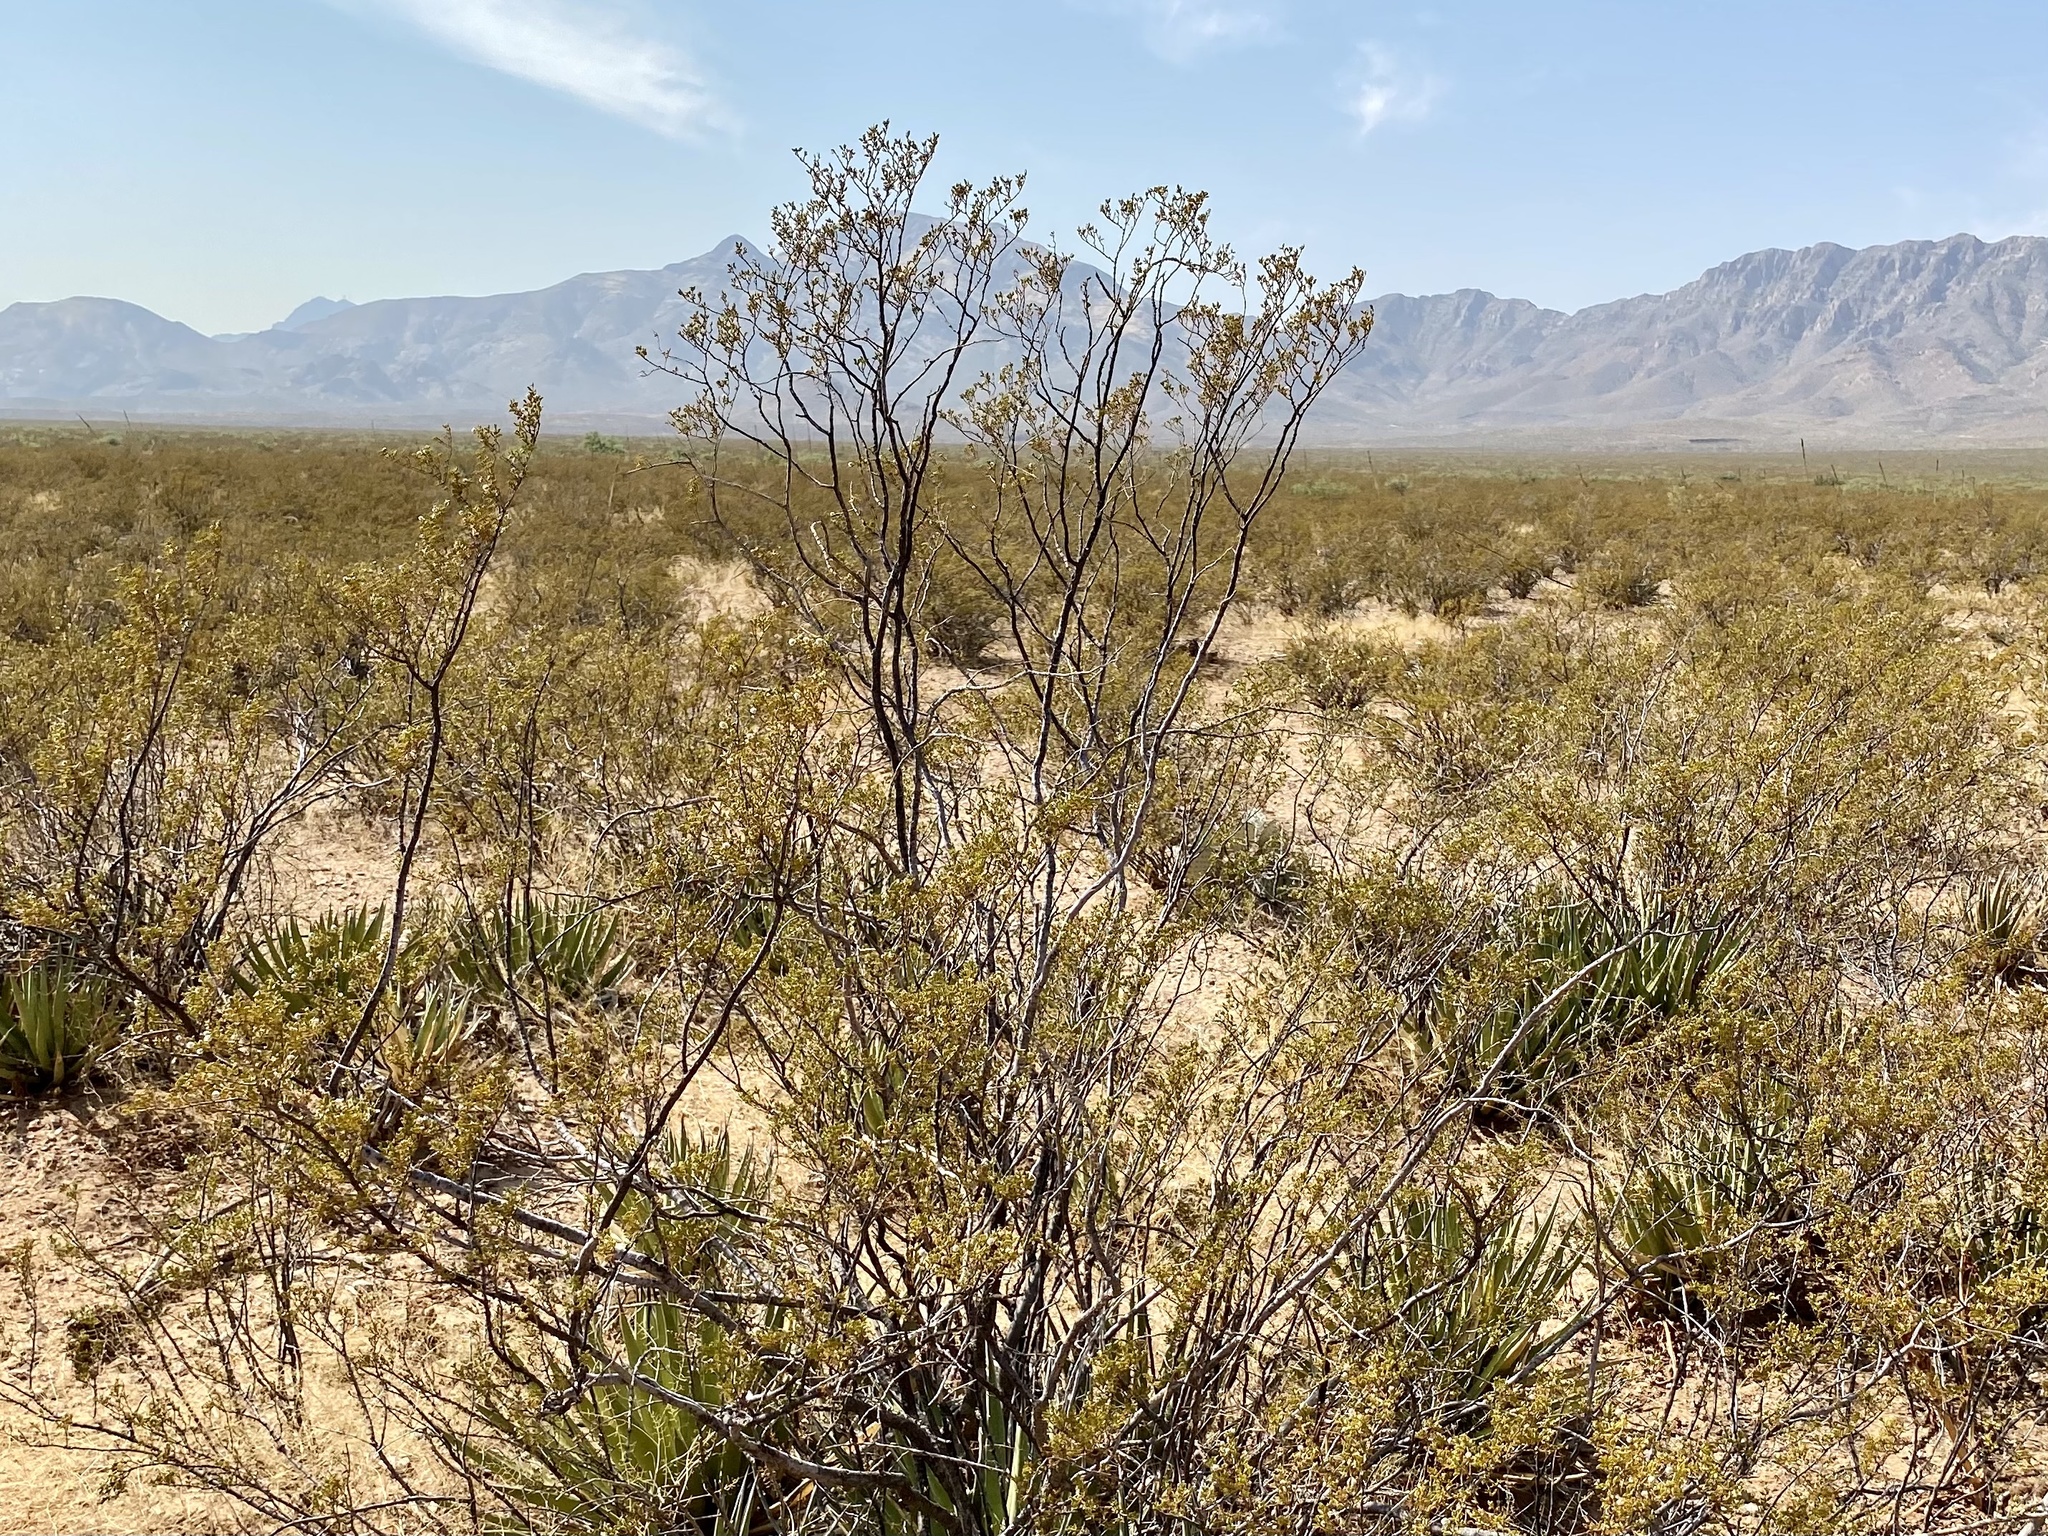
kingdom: Plantae
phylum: Tracheophyta
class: Magnoliopsida
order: Zygophyllales
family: Zygophyllaceae
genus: Larrea
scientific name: Larrea tridentata
